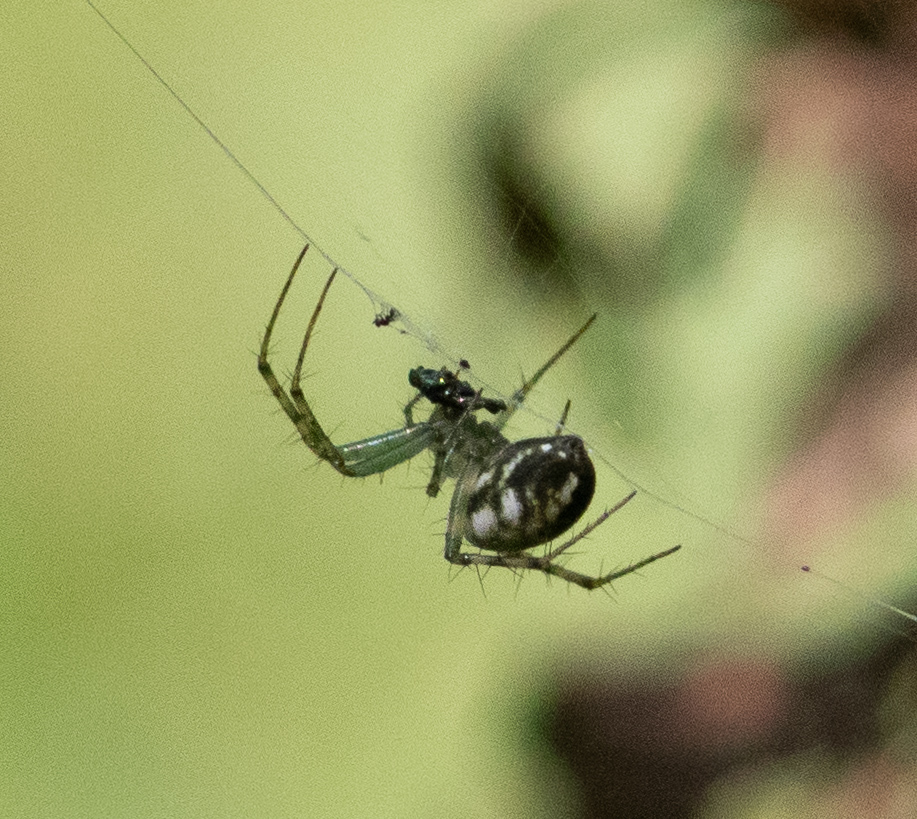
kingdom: Animalia
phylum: Arthropoda
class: Arachnida
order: Araneae
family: Araneidae
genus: Mangora
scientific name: Mangora maculata
